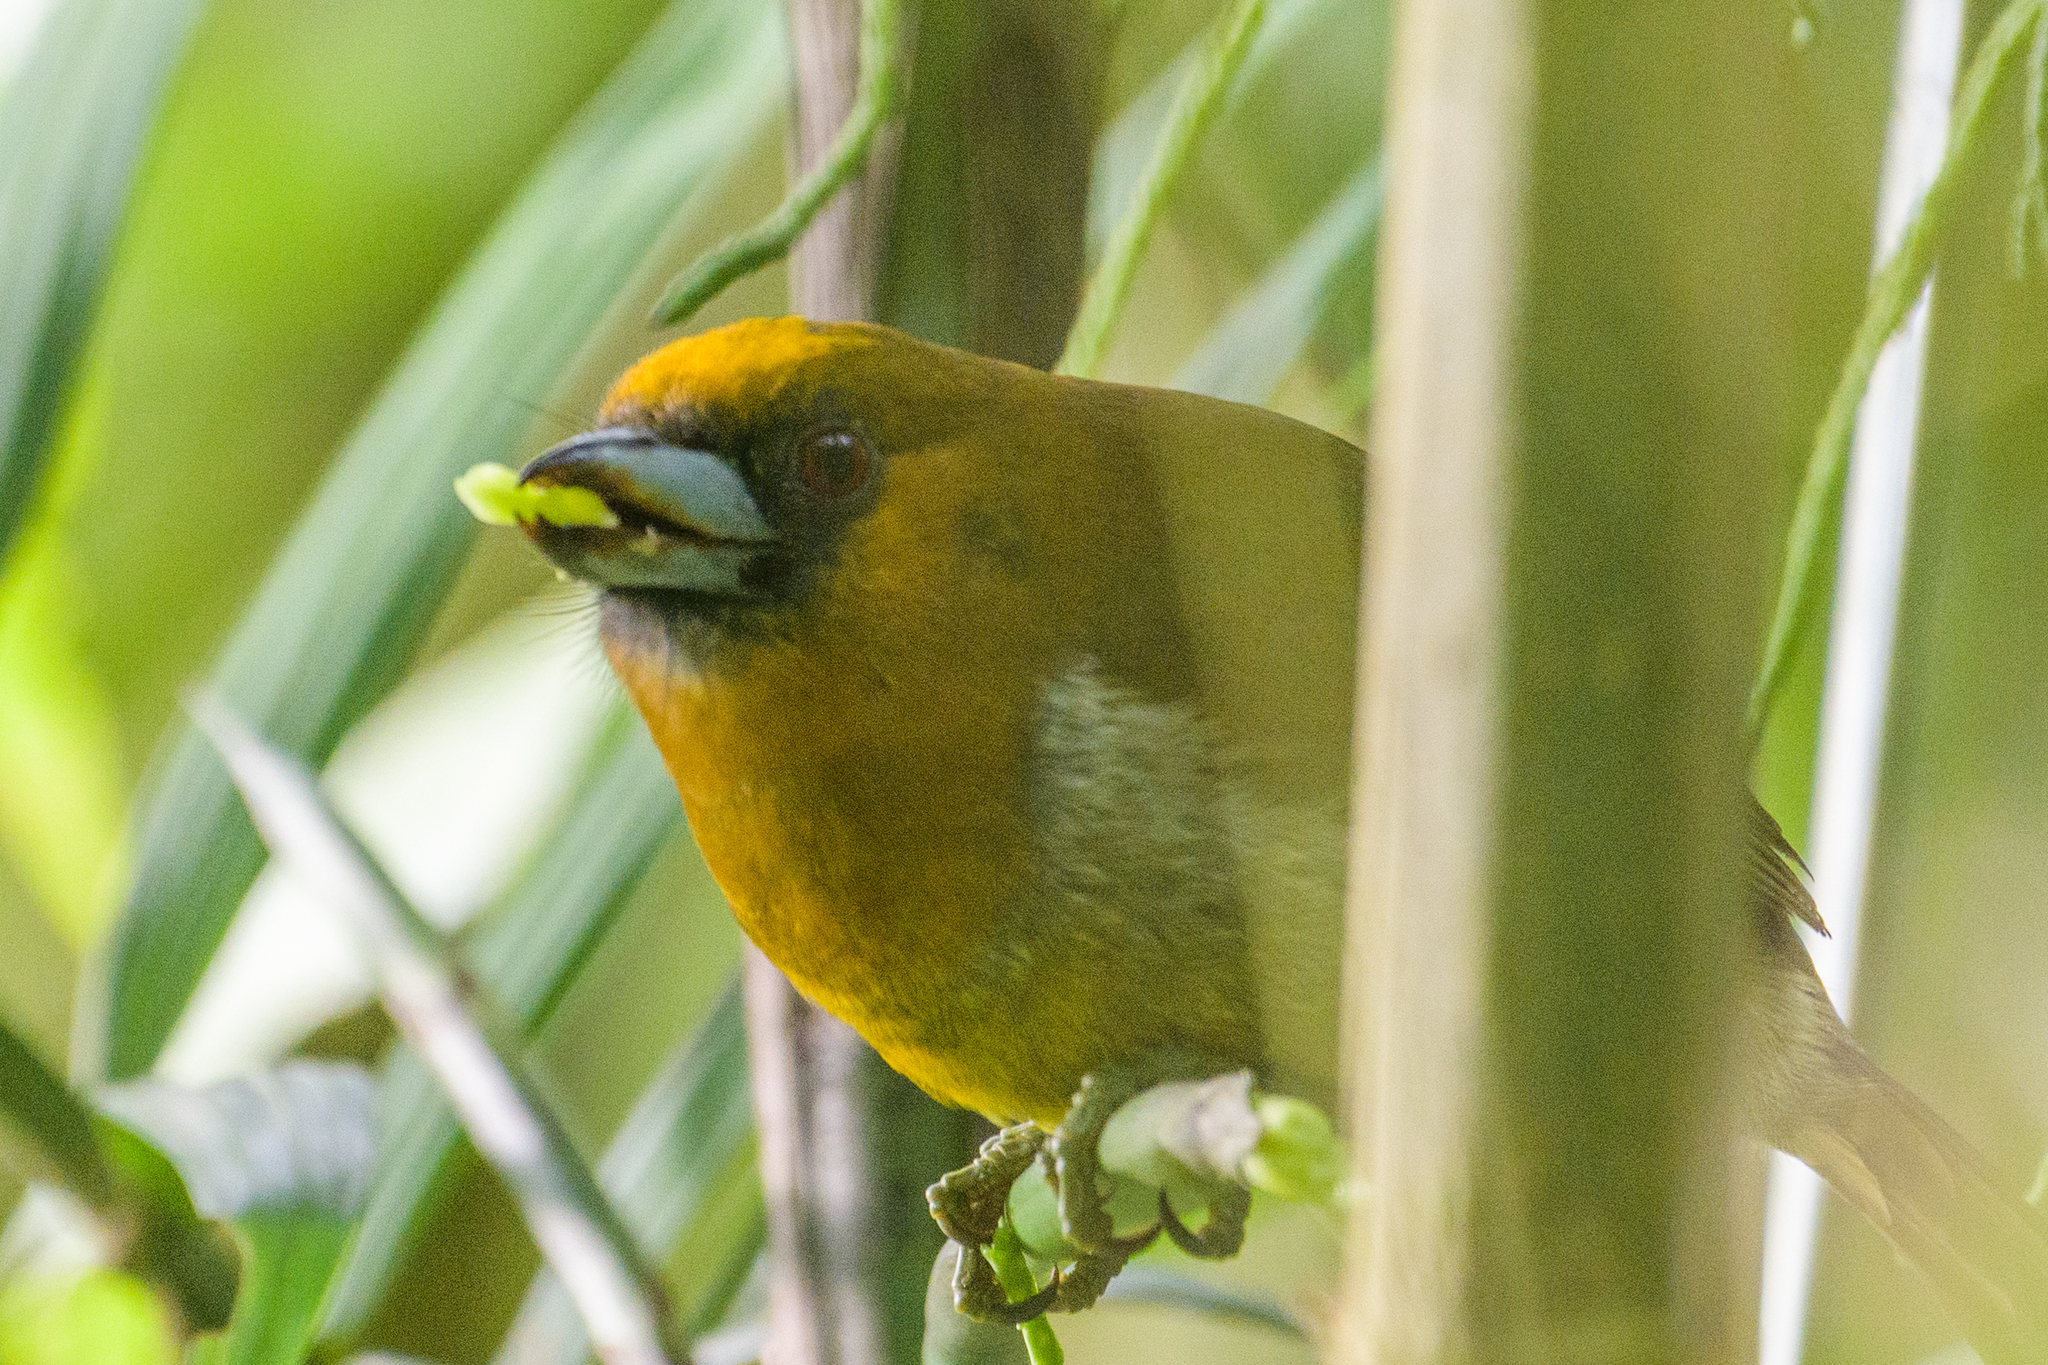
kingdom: Animalia
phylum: Chordata
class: Aves
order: Piciformes
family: Semnornithidae
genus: Semnornis
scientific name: Semnornis frantzii
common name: Prong-billed barbet
